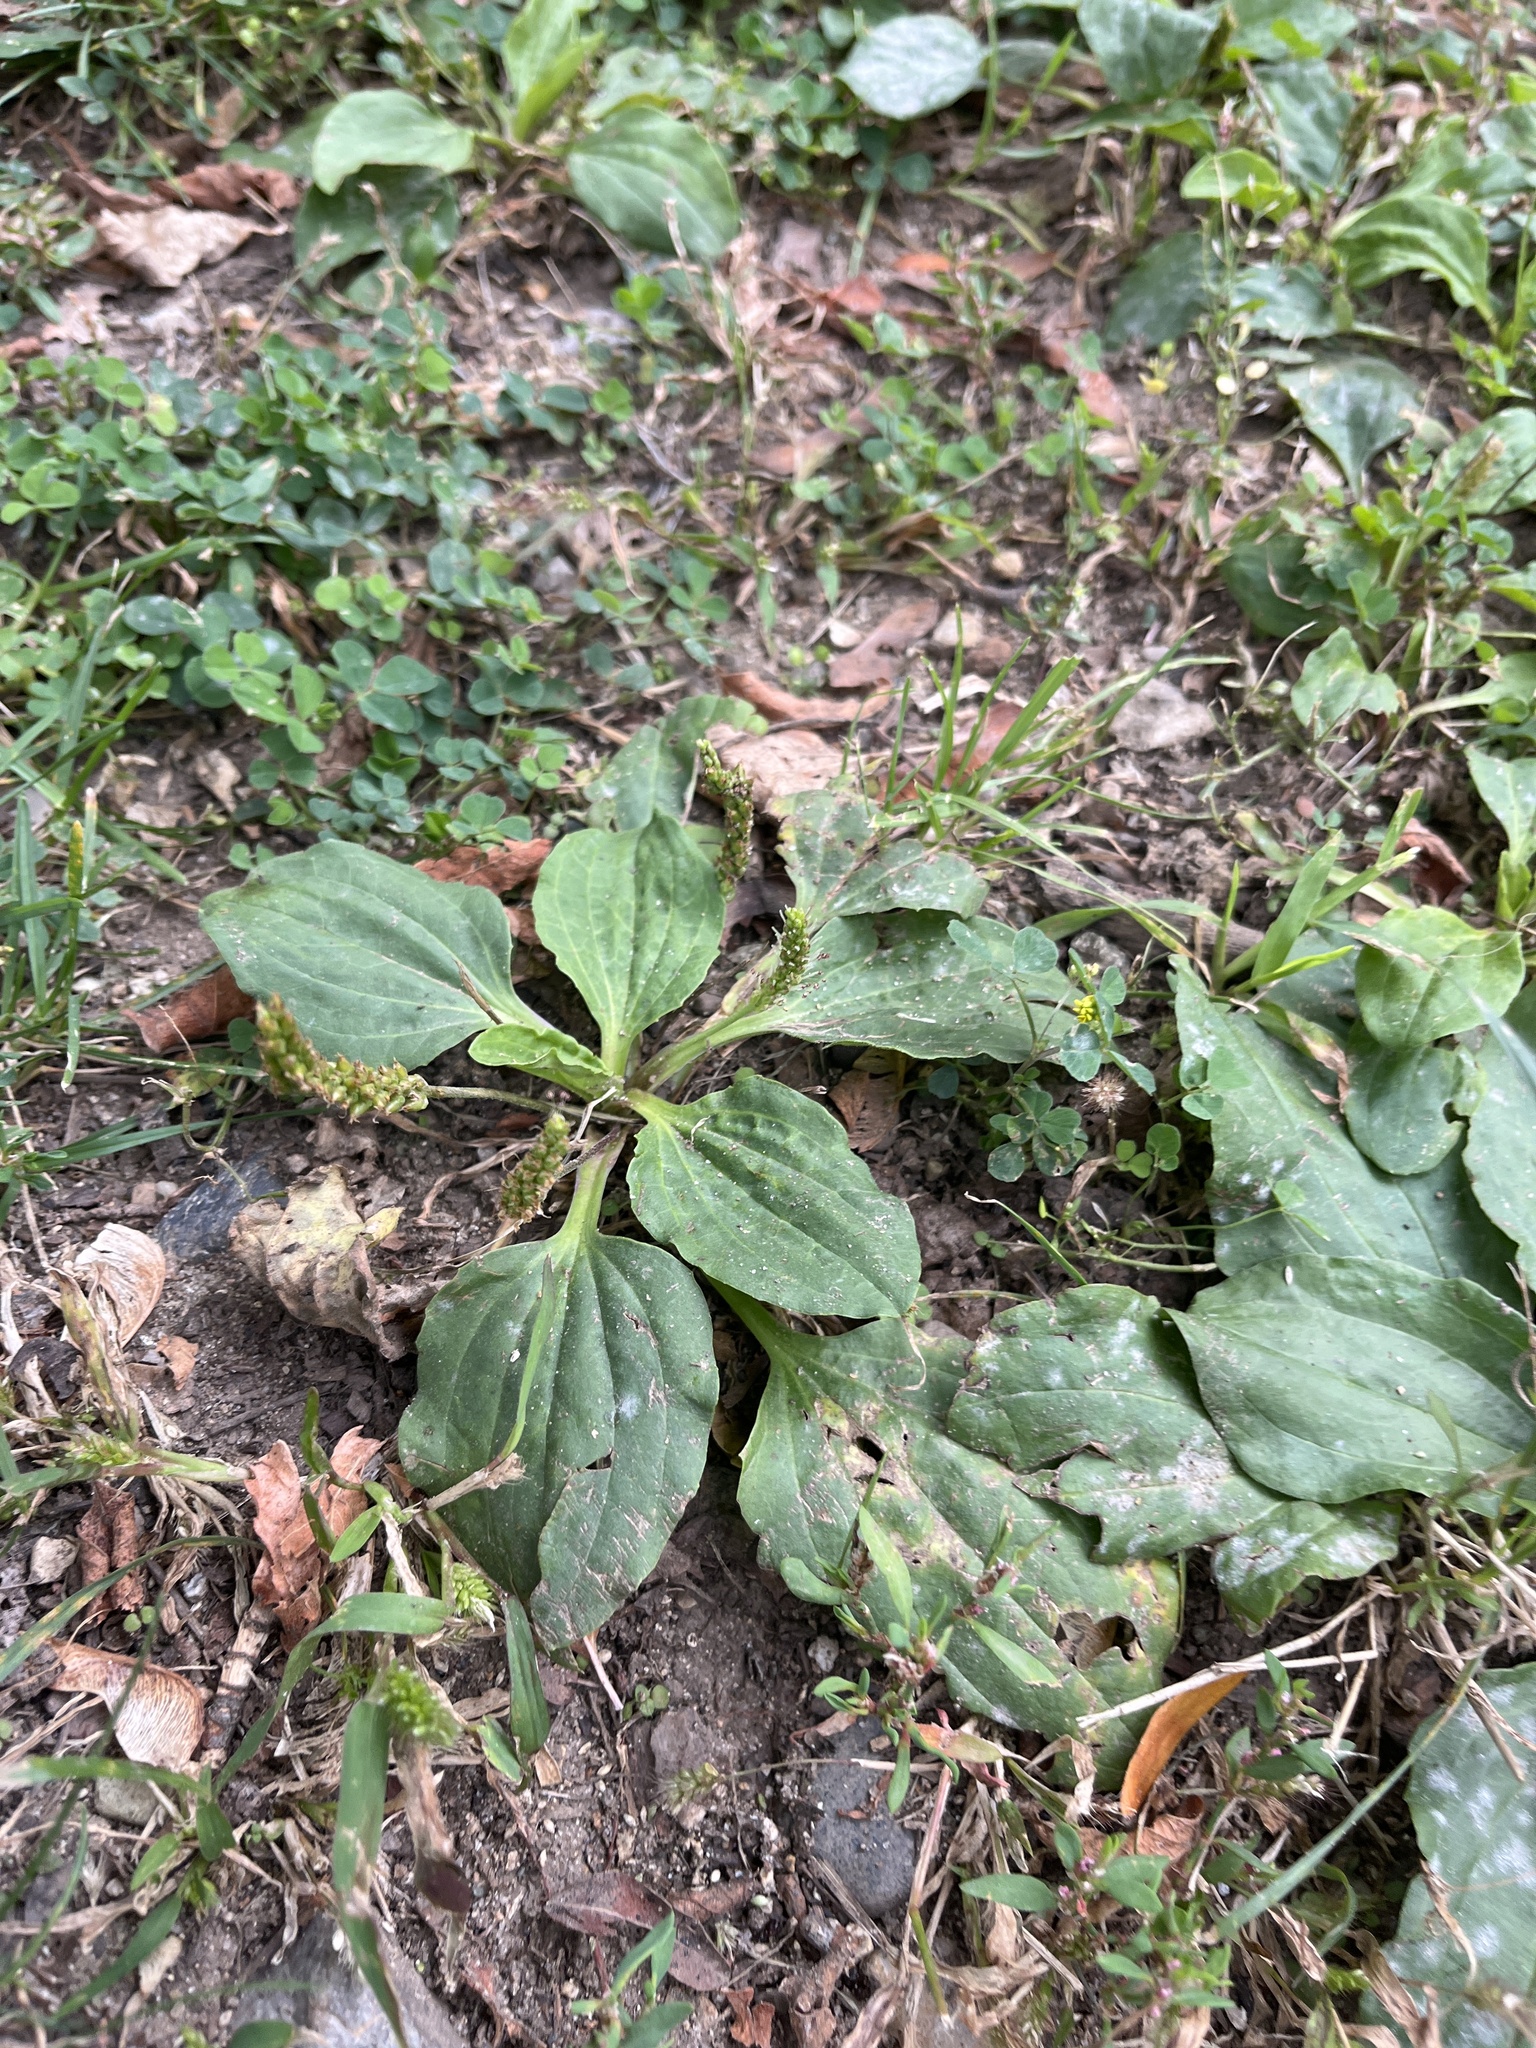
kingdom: Plantae
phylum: Tracheophyta
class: Magnoliopsida
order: Lamiales
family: Plantaginaceae
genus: Plantago
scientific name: Plantago major
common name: Common plantain
